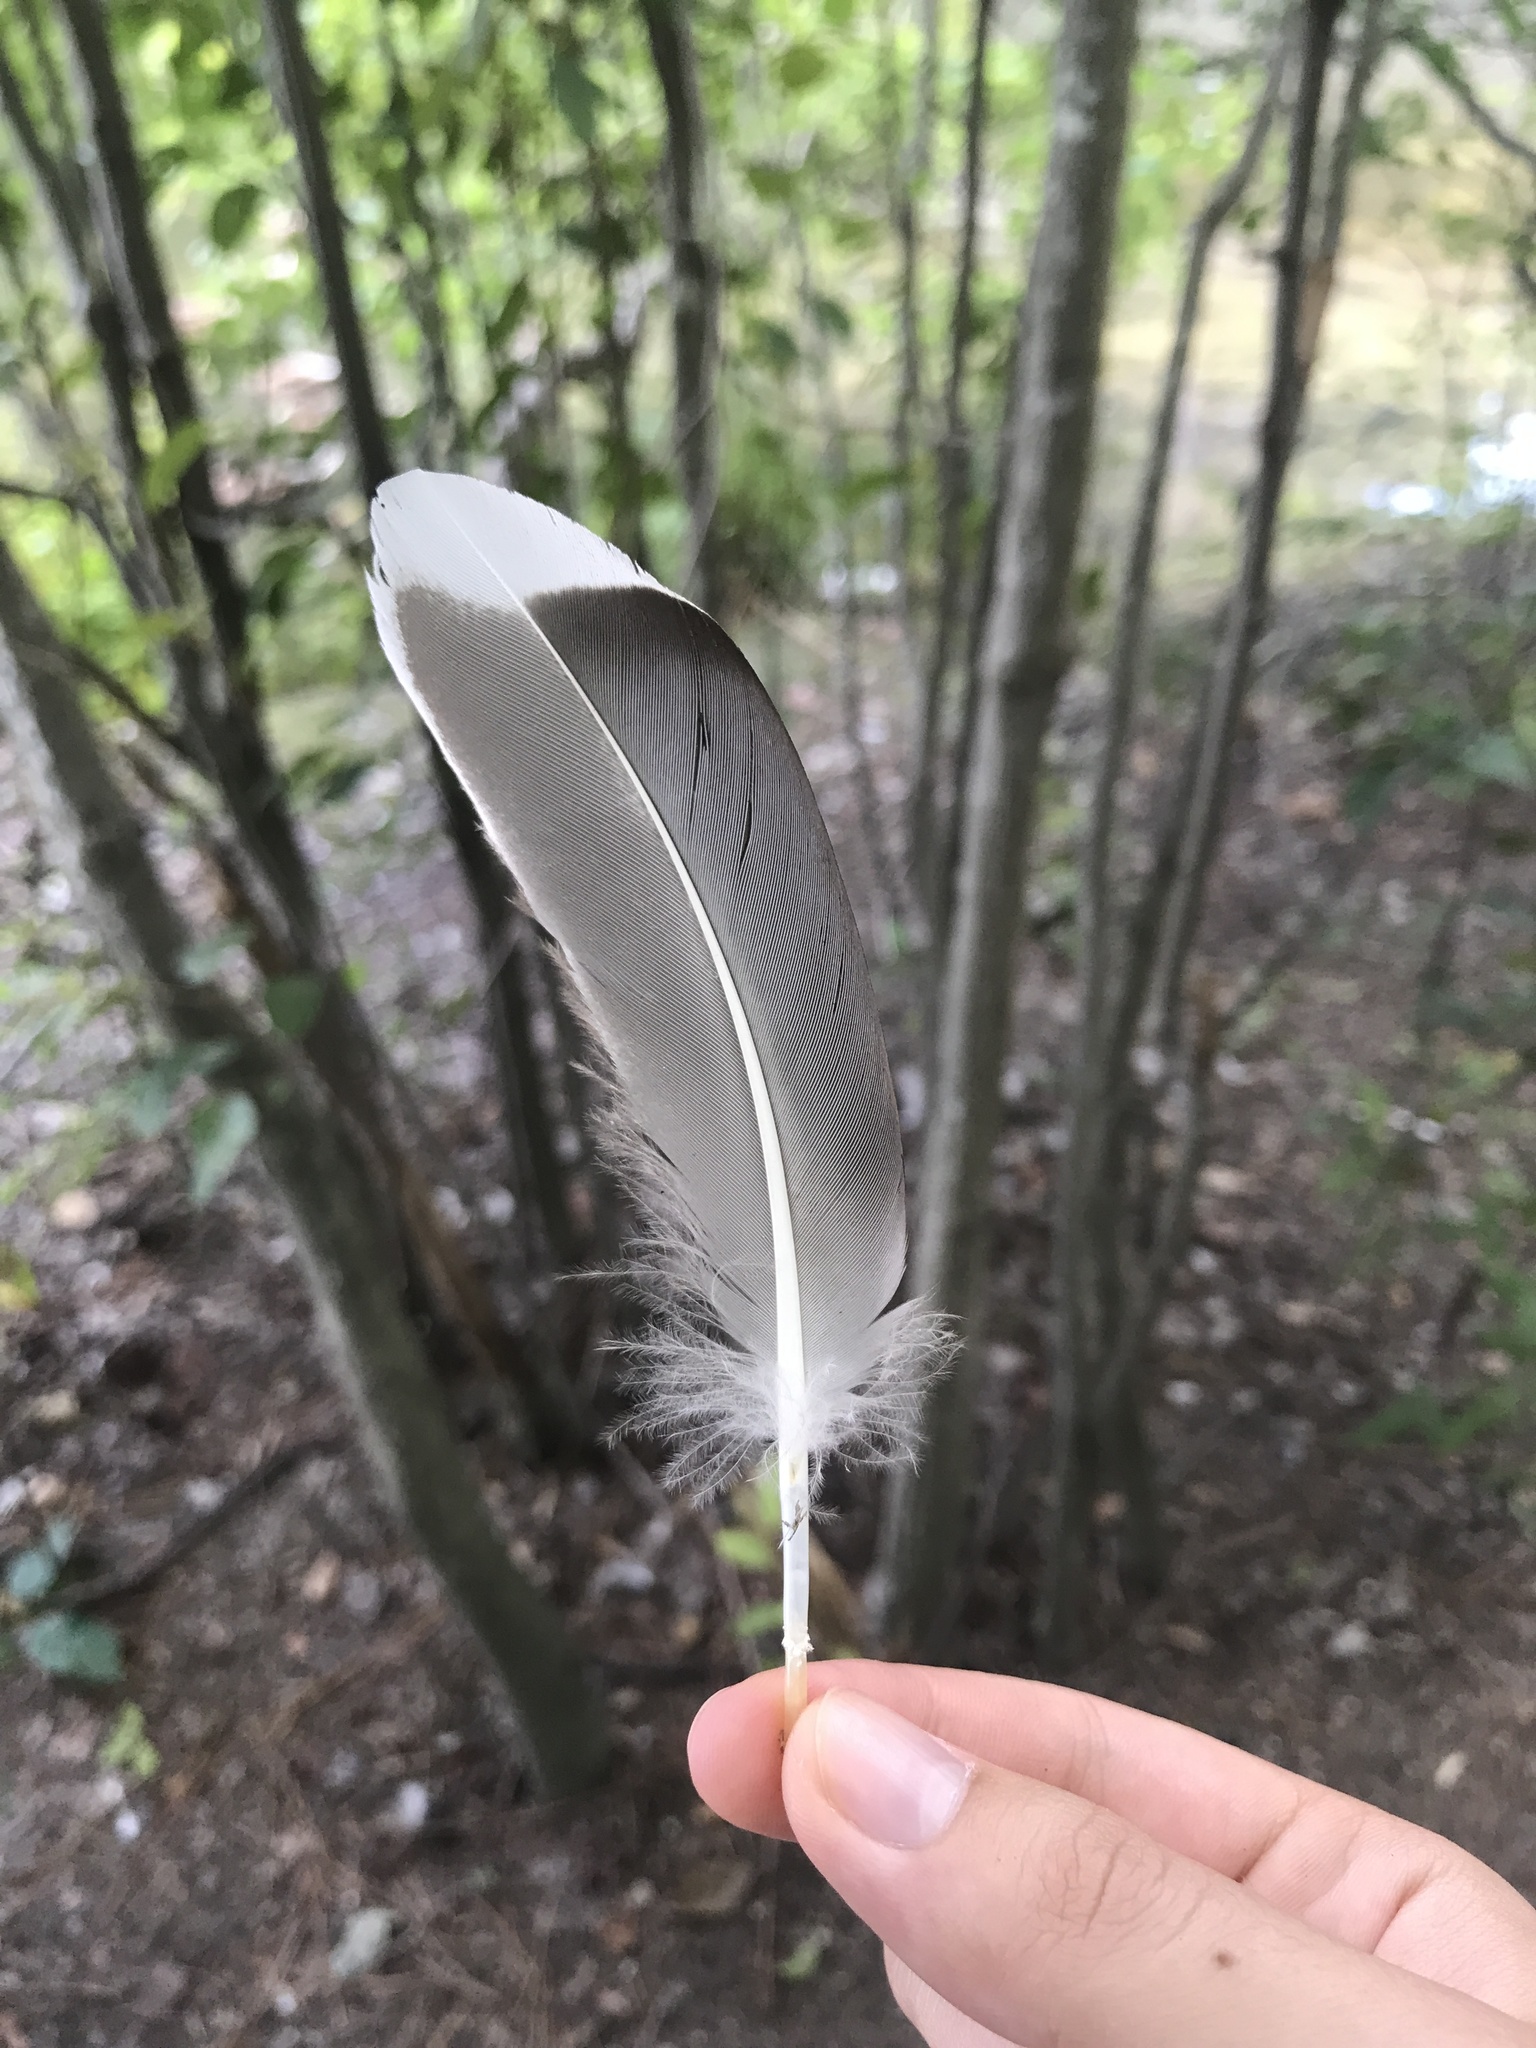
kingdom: Animalia
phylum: Chordata
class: Aves
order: Anseriformes
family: Anatidae
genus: Anas
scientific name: Anas platyrhynchos
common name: Mallard
